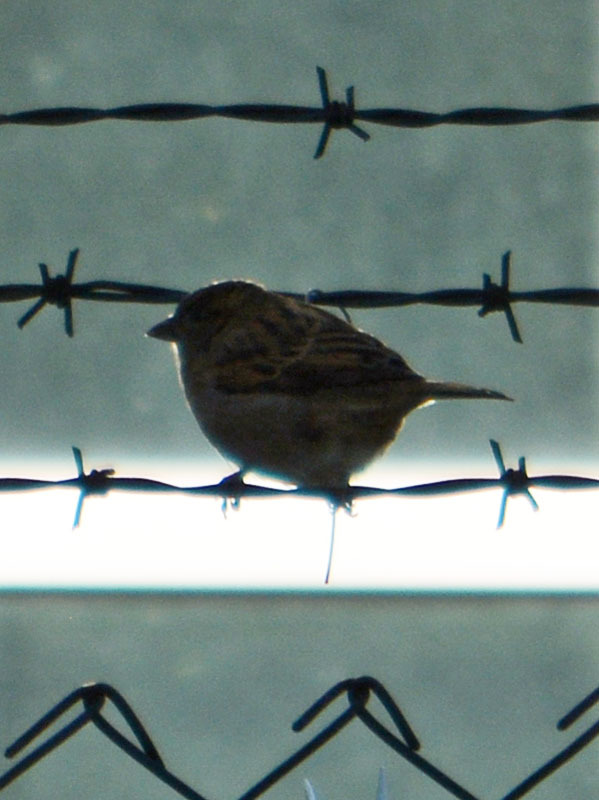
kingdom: Animalia
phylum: Chordata
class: Aves
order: Passeriformes
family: Passeridae
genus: Passer
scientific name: Passer domesticus
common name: House sparrow
